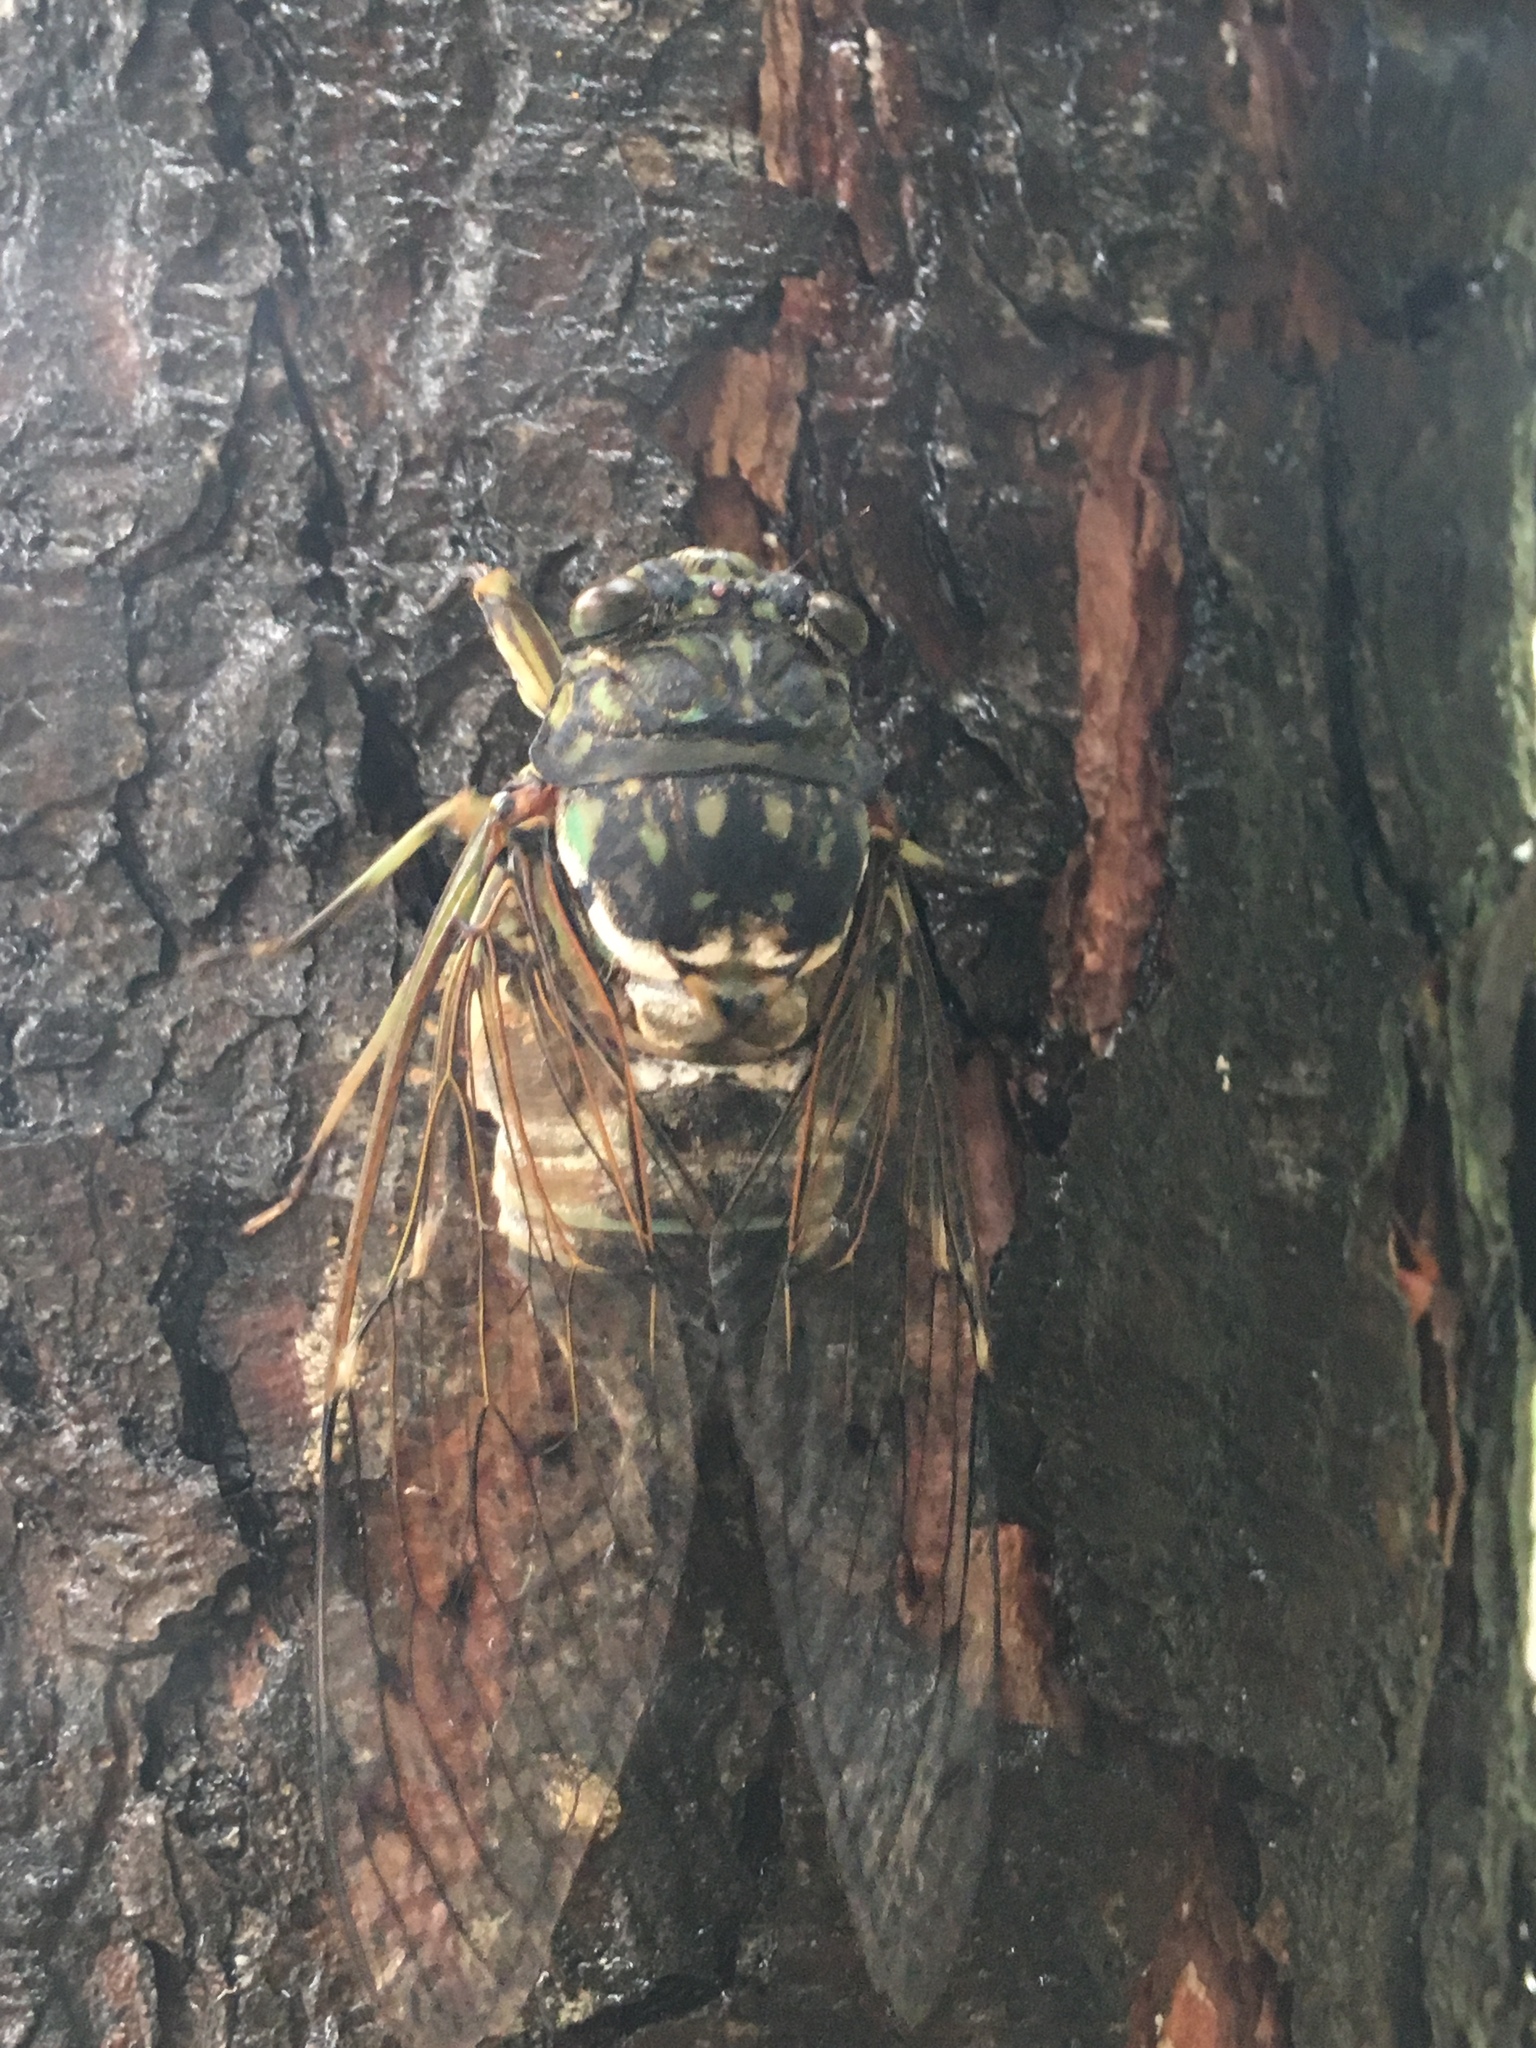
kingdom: Animalia
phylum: Arthropoda
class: Insecta
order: Hemiptera
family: Cicadidae
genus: Hyalessa
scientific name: Hyalessa maculaticollis
